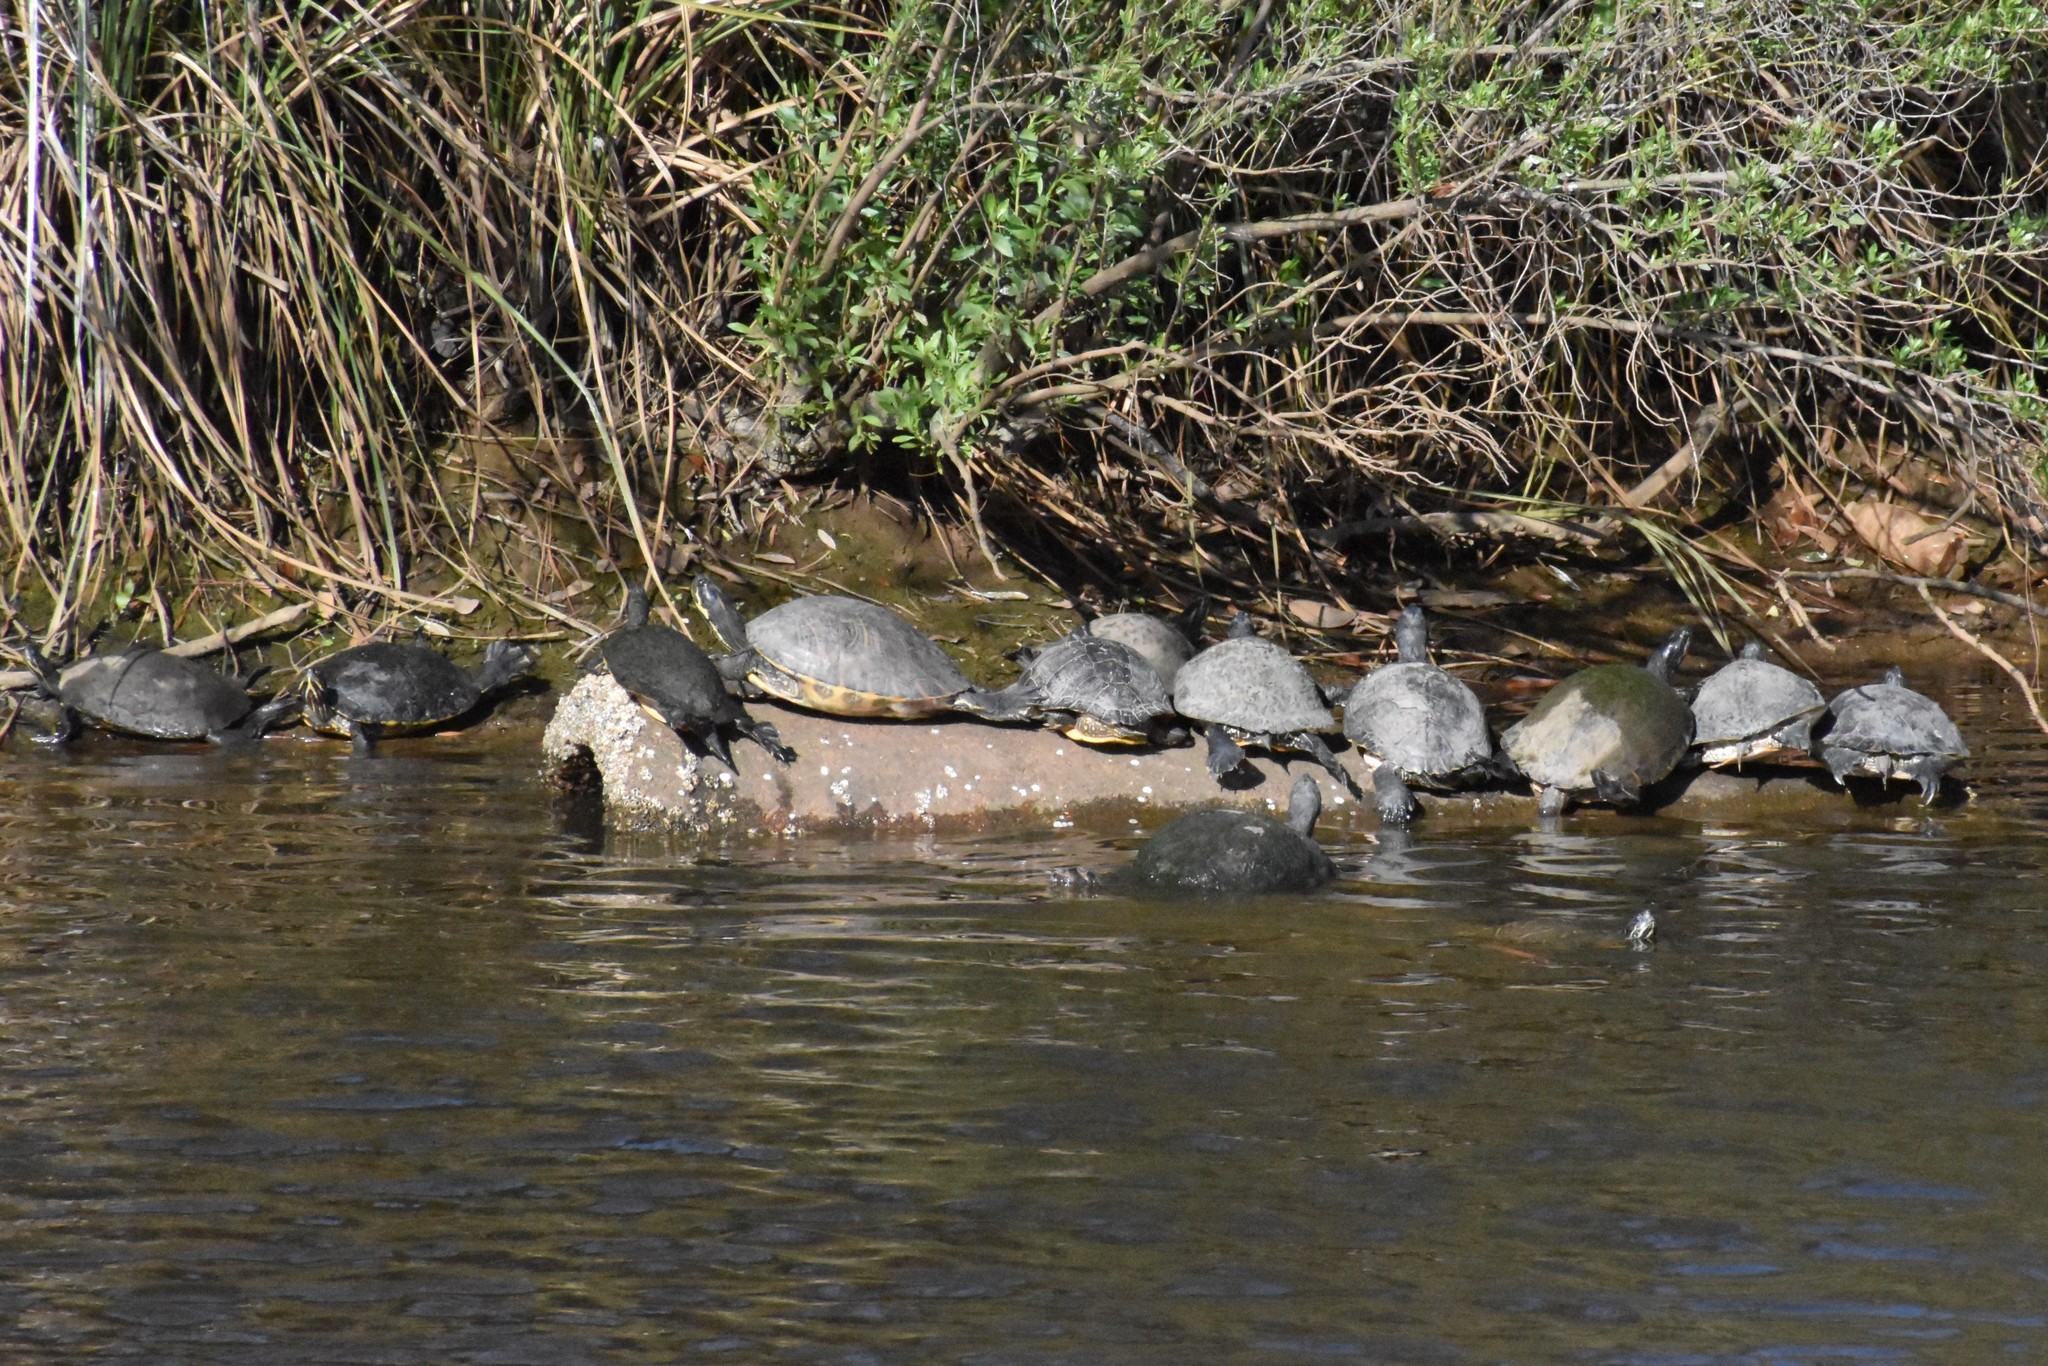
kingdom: Animalia
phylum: Chordata
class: Testudines
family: Emydidae
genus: Trachemys
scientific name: Trachemys scripta
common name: Slider
